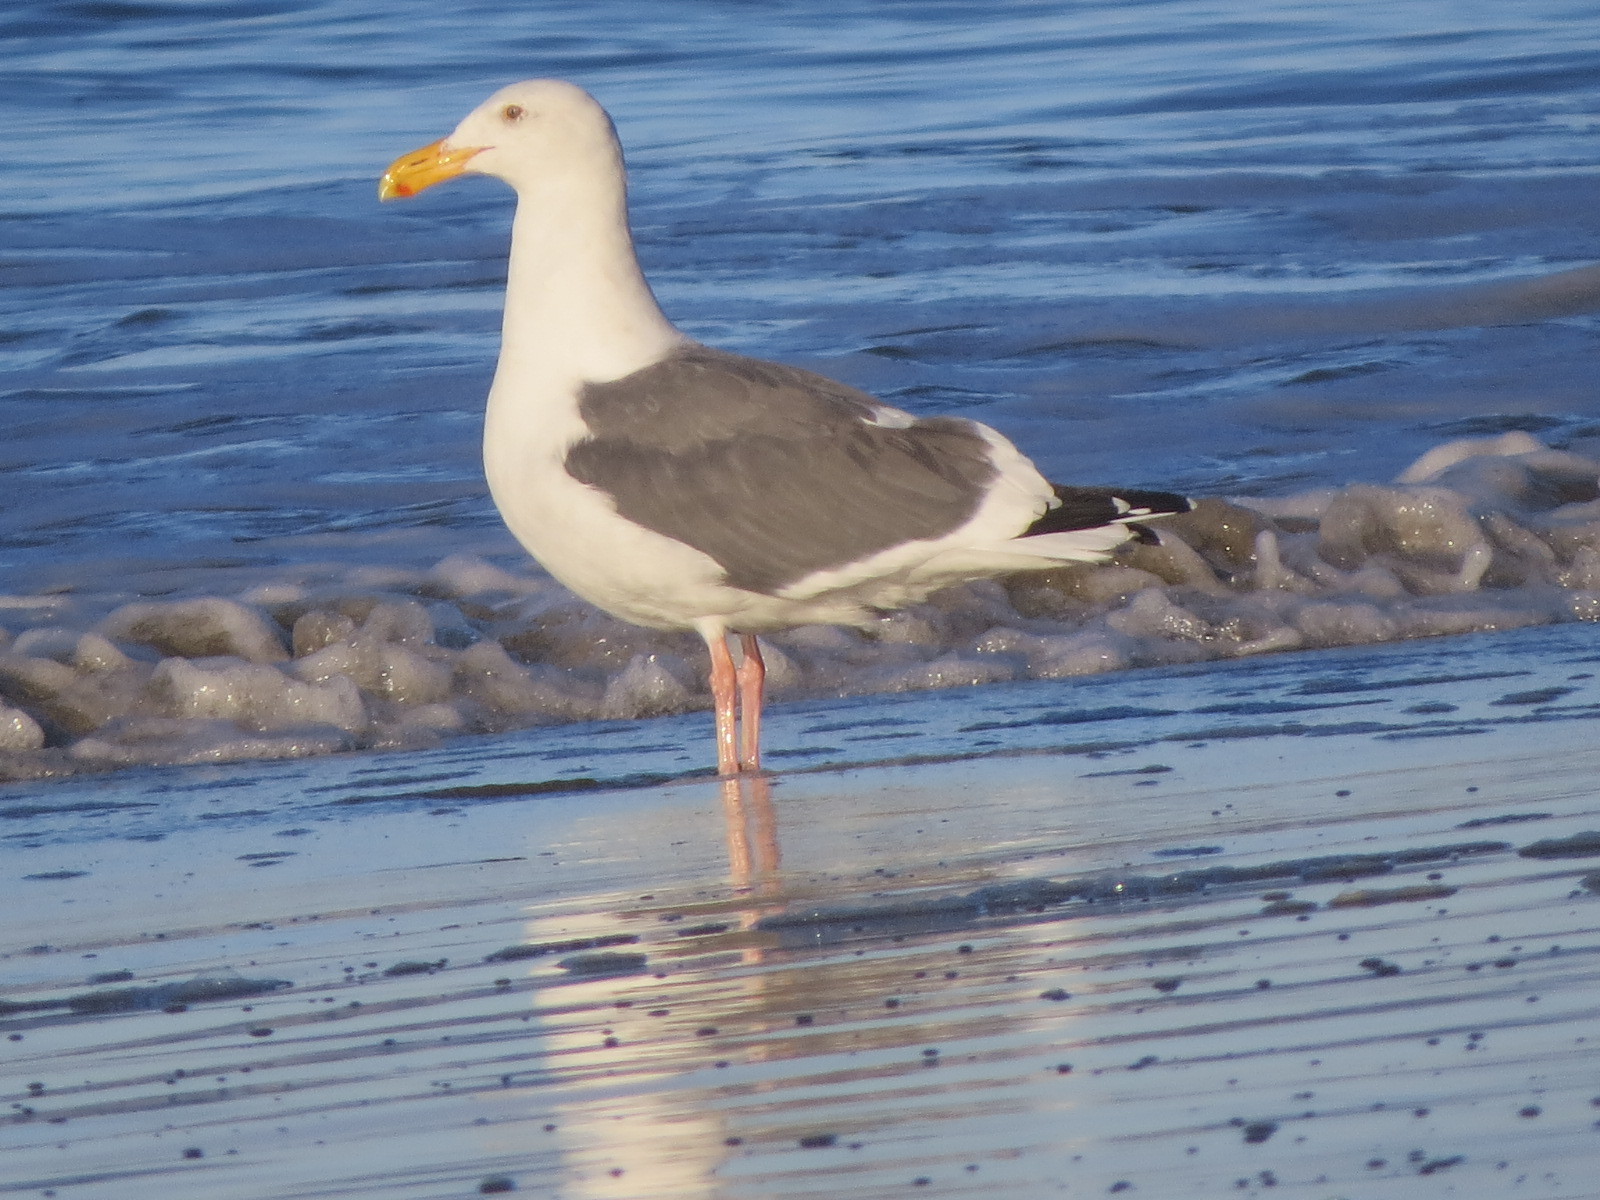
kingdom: Animalia
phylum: Chordata
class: Aves
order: Charadriiformes
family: Laridae
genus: Larus
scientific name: Larus occidentalis
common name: Western gull
